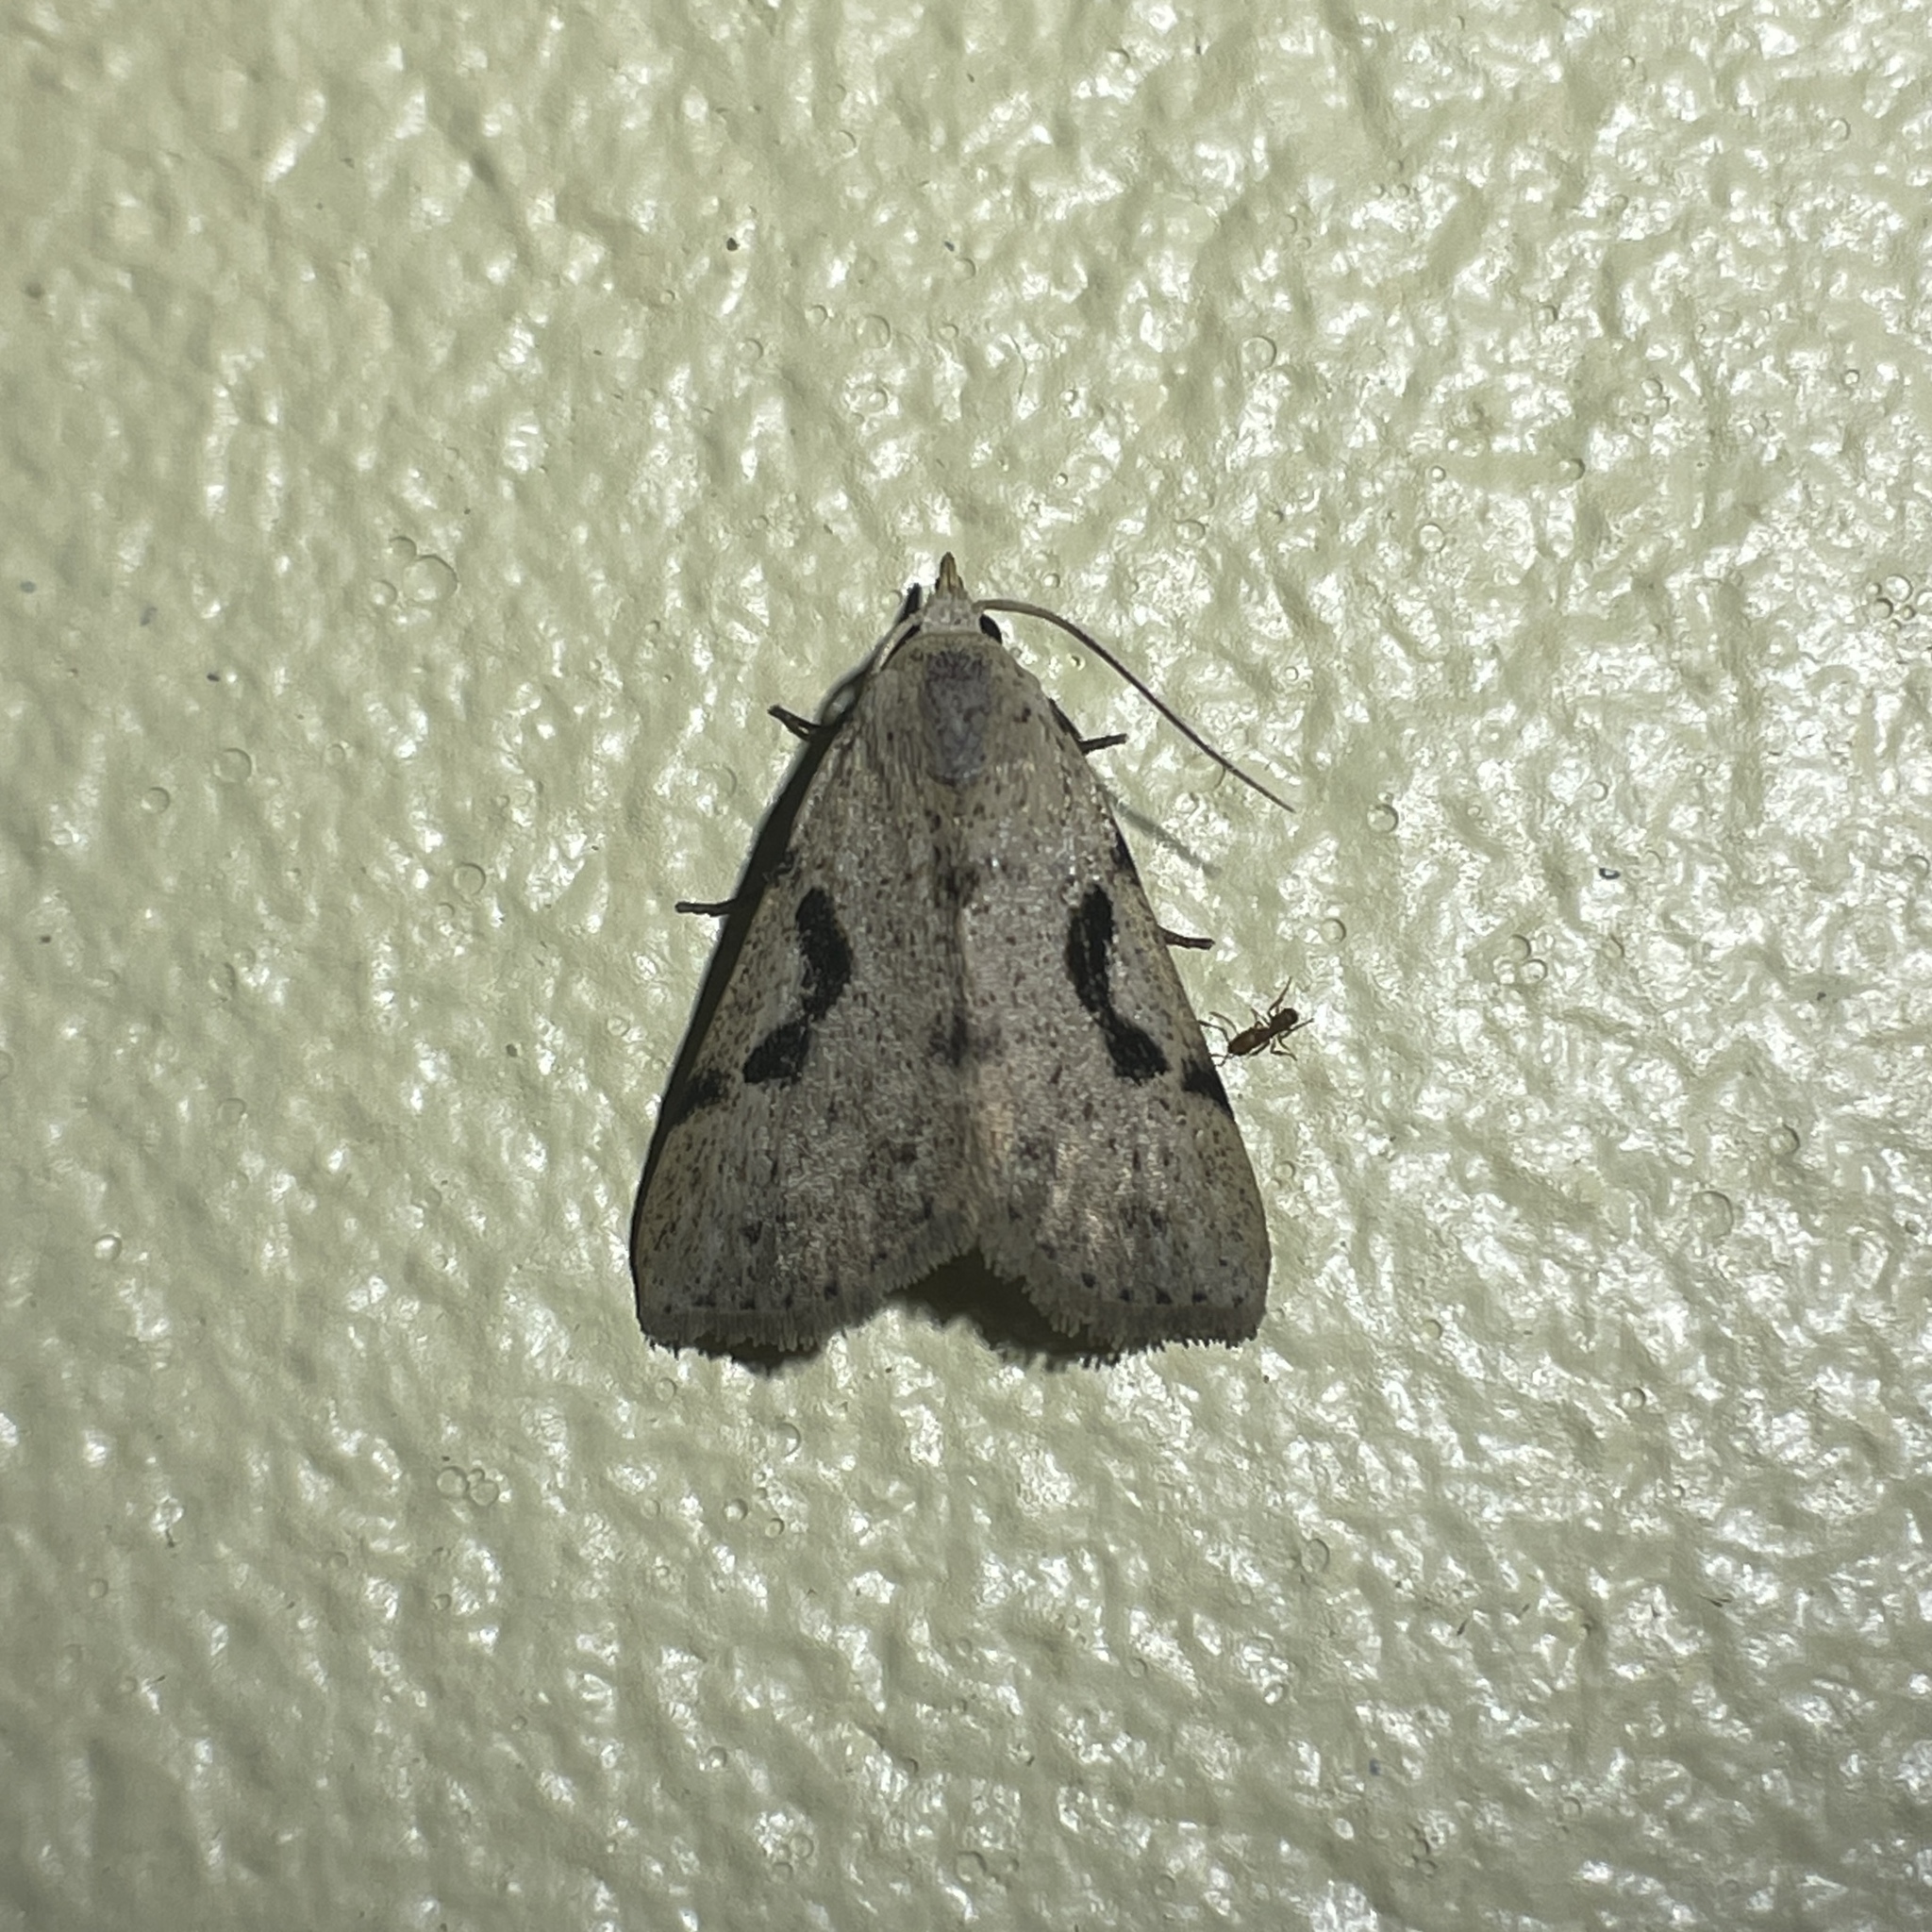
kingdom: Animalia
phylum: Arthropoda
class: Insecta
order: Lepidoptera
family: Erebidae
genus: Acanthermia
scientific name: Acanthermia concatenalis
